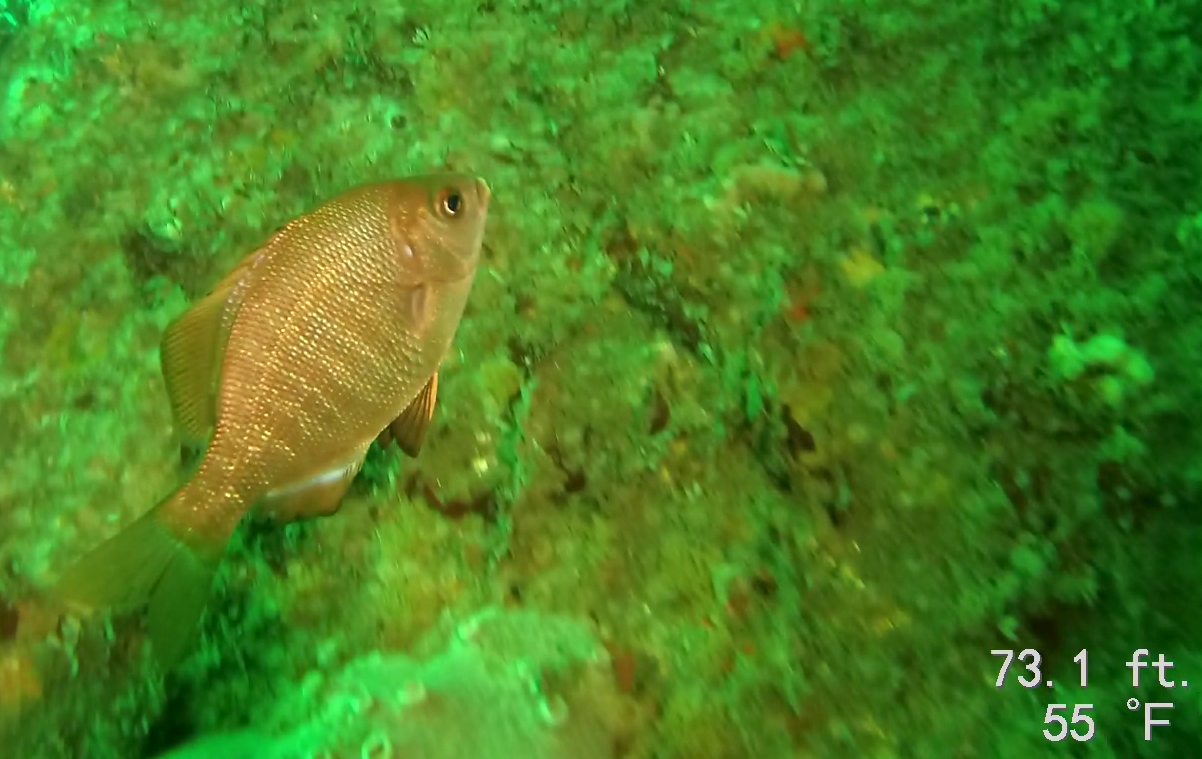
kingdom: Animalia
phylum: Chordata
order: Perciformes
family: Embiotocidae
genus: Embiotoca
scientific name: Embiotoca jacksoni
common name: Black perch
